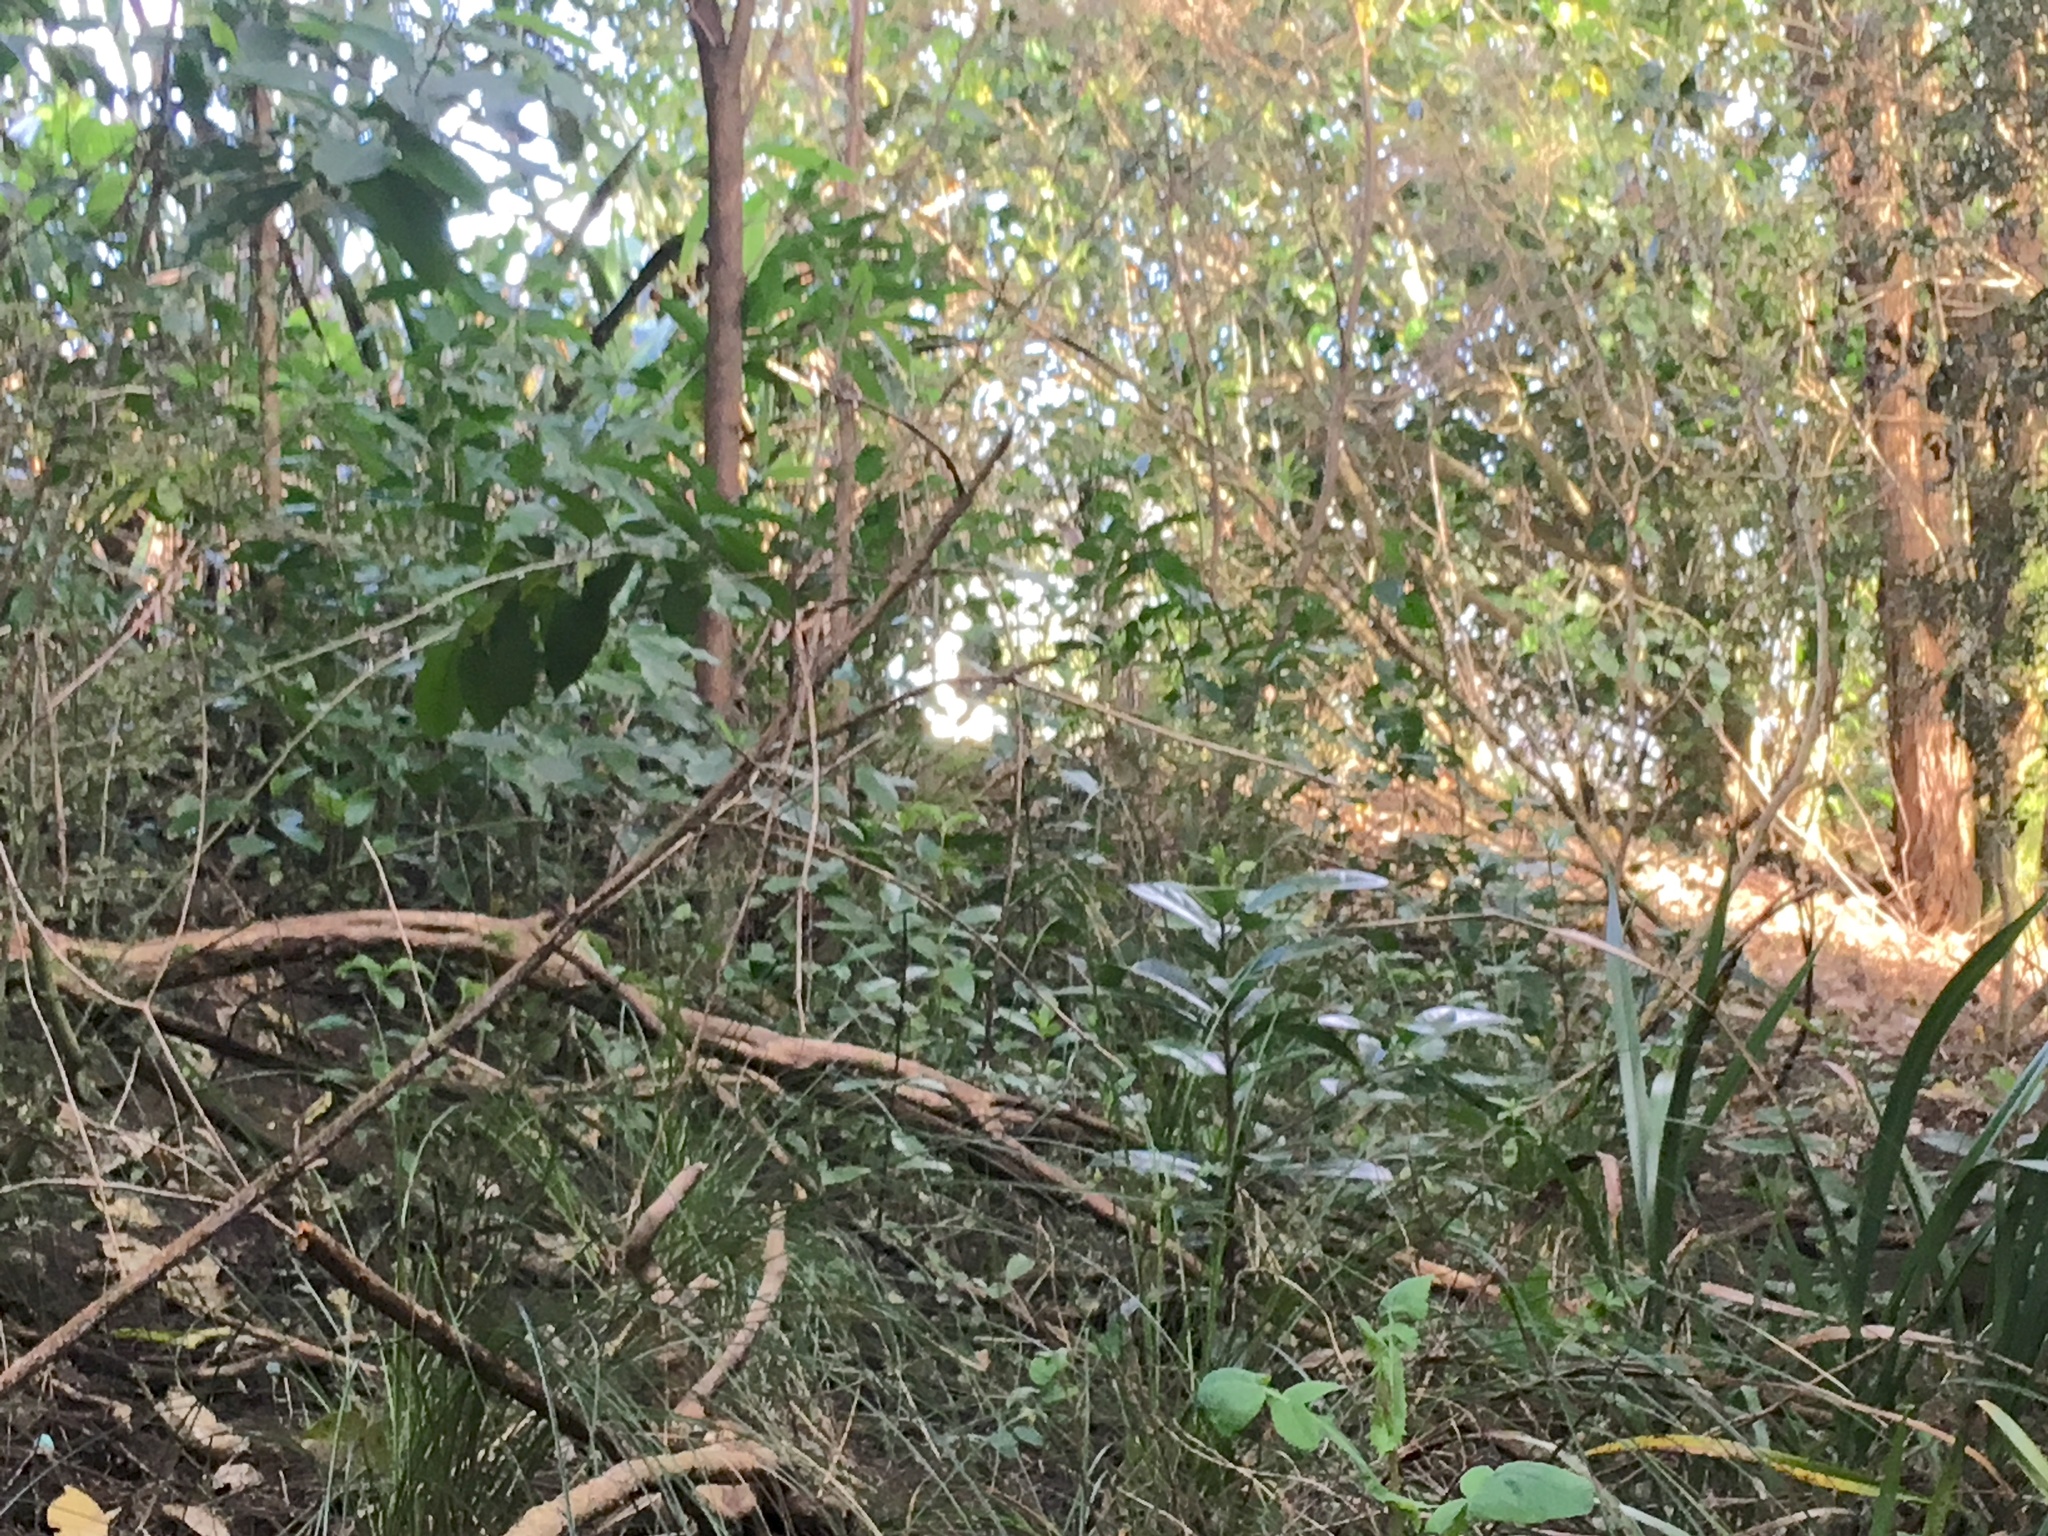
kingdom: Plantae
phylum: Tracheophyta
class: Magnoliopsida
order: Asterales
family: Asteraceae
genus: Sonchus
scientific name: Sonchus oleraceus
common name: Common sowthistle
